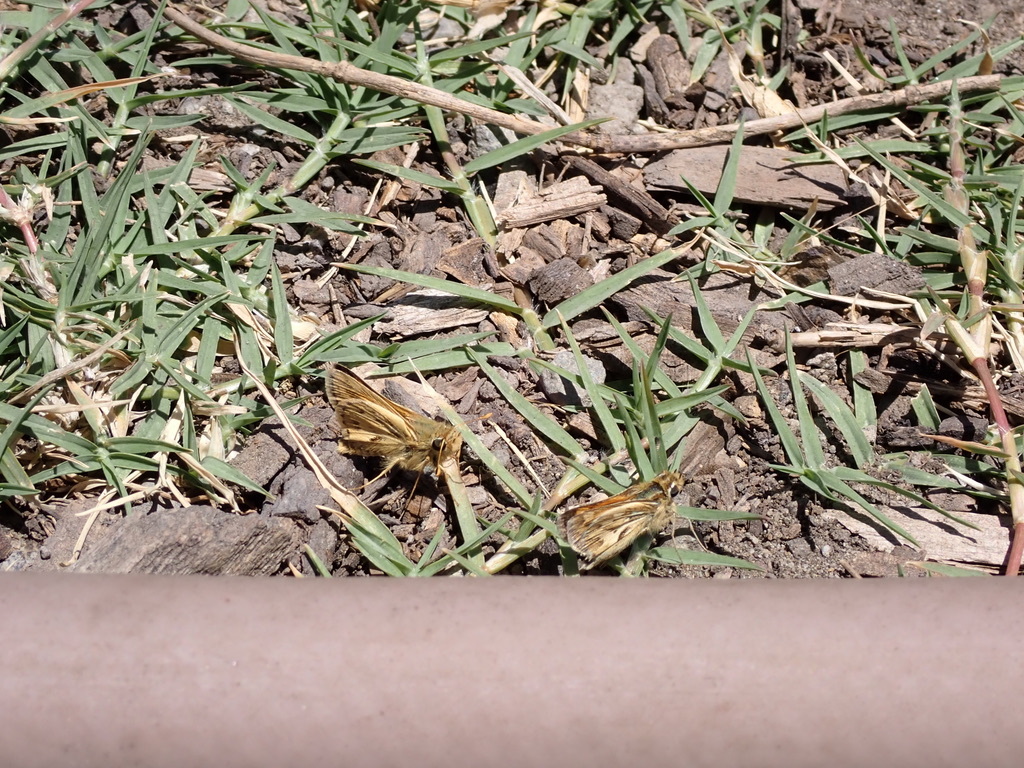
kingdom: Animalia
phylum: Arthropoda
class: Insecta
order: Lepidoptera
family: Hesperiidae
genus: Polites
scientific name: Polites sabuleti
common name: Sandhill skipper
